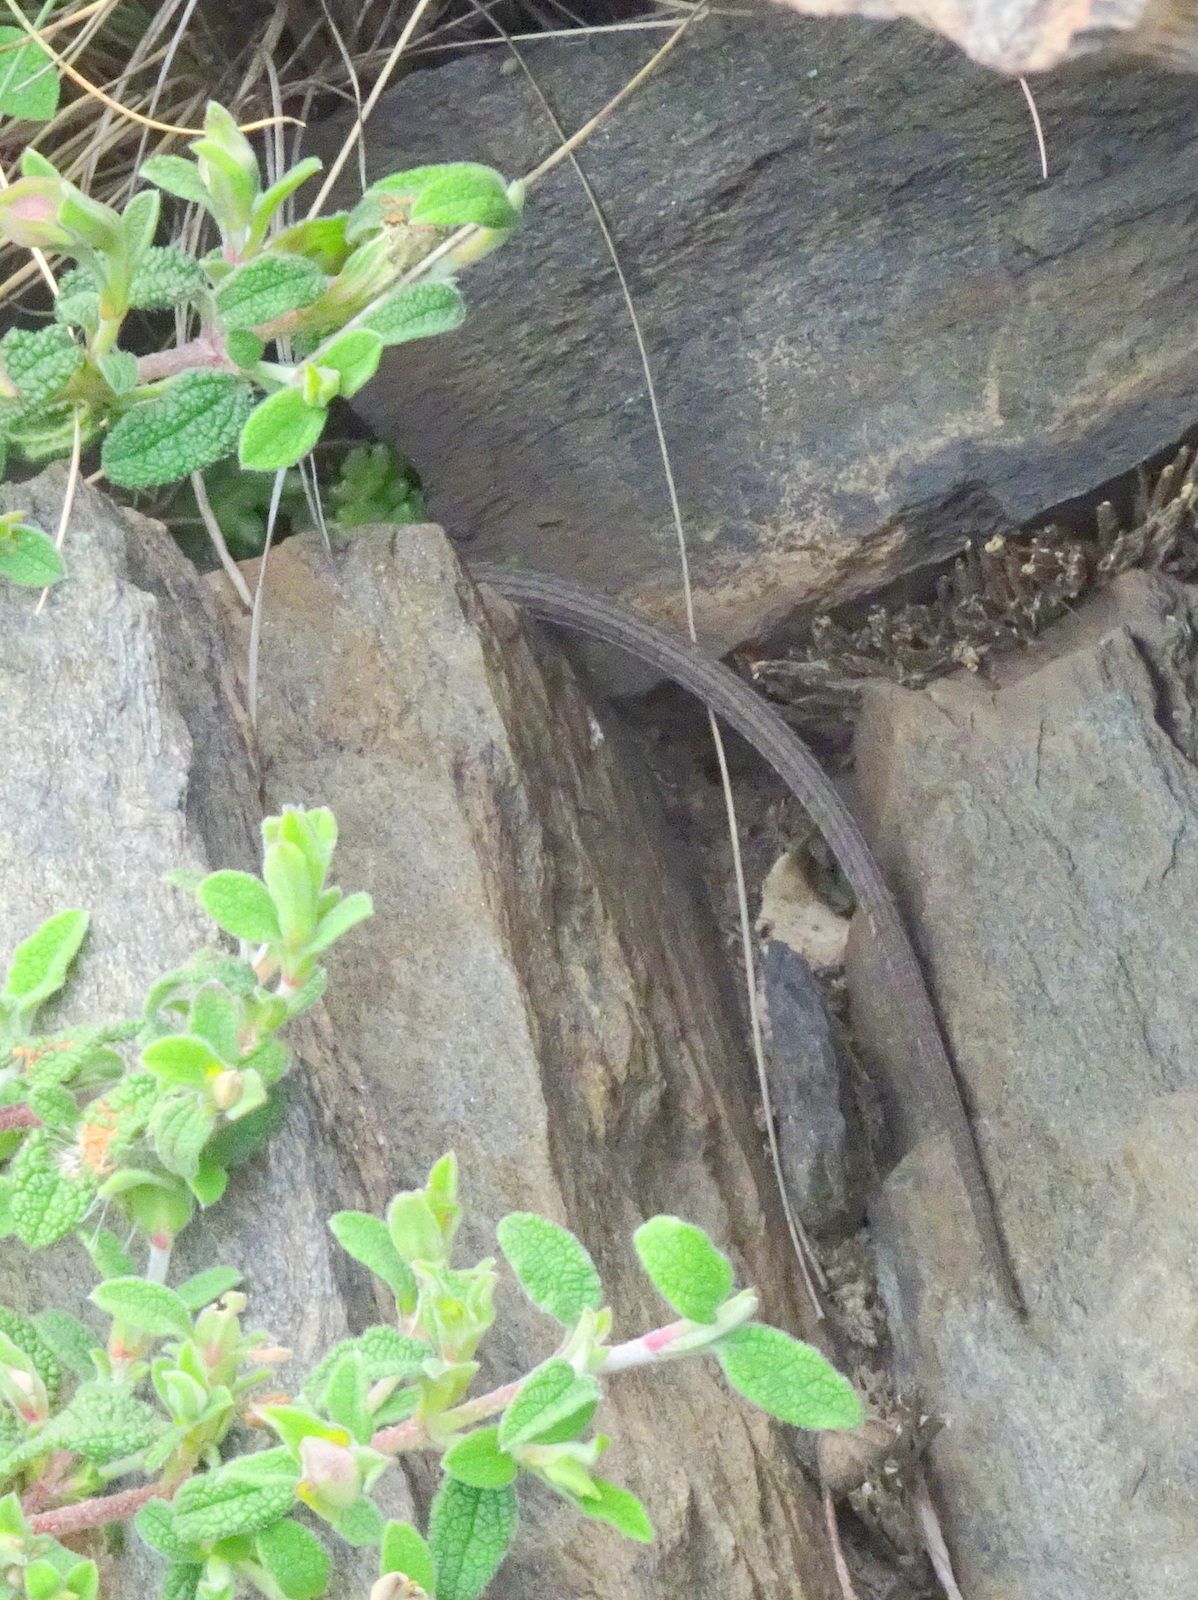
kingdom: Animalia
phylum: Chordata
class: Squamata
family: Lacertidae
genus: Psammodromus
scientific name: Psammodromus algirus
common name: Algerian psammodromus
